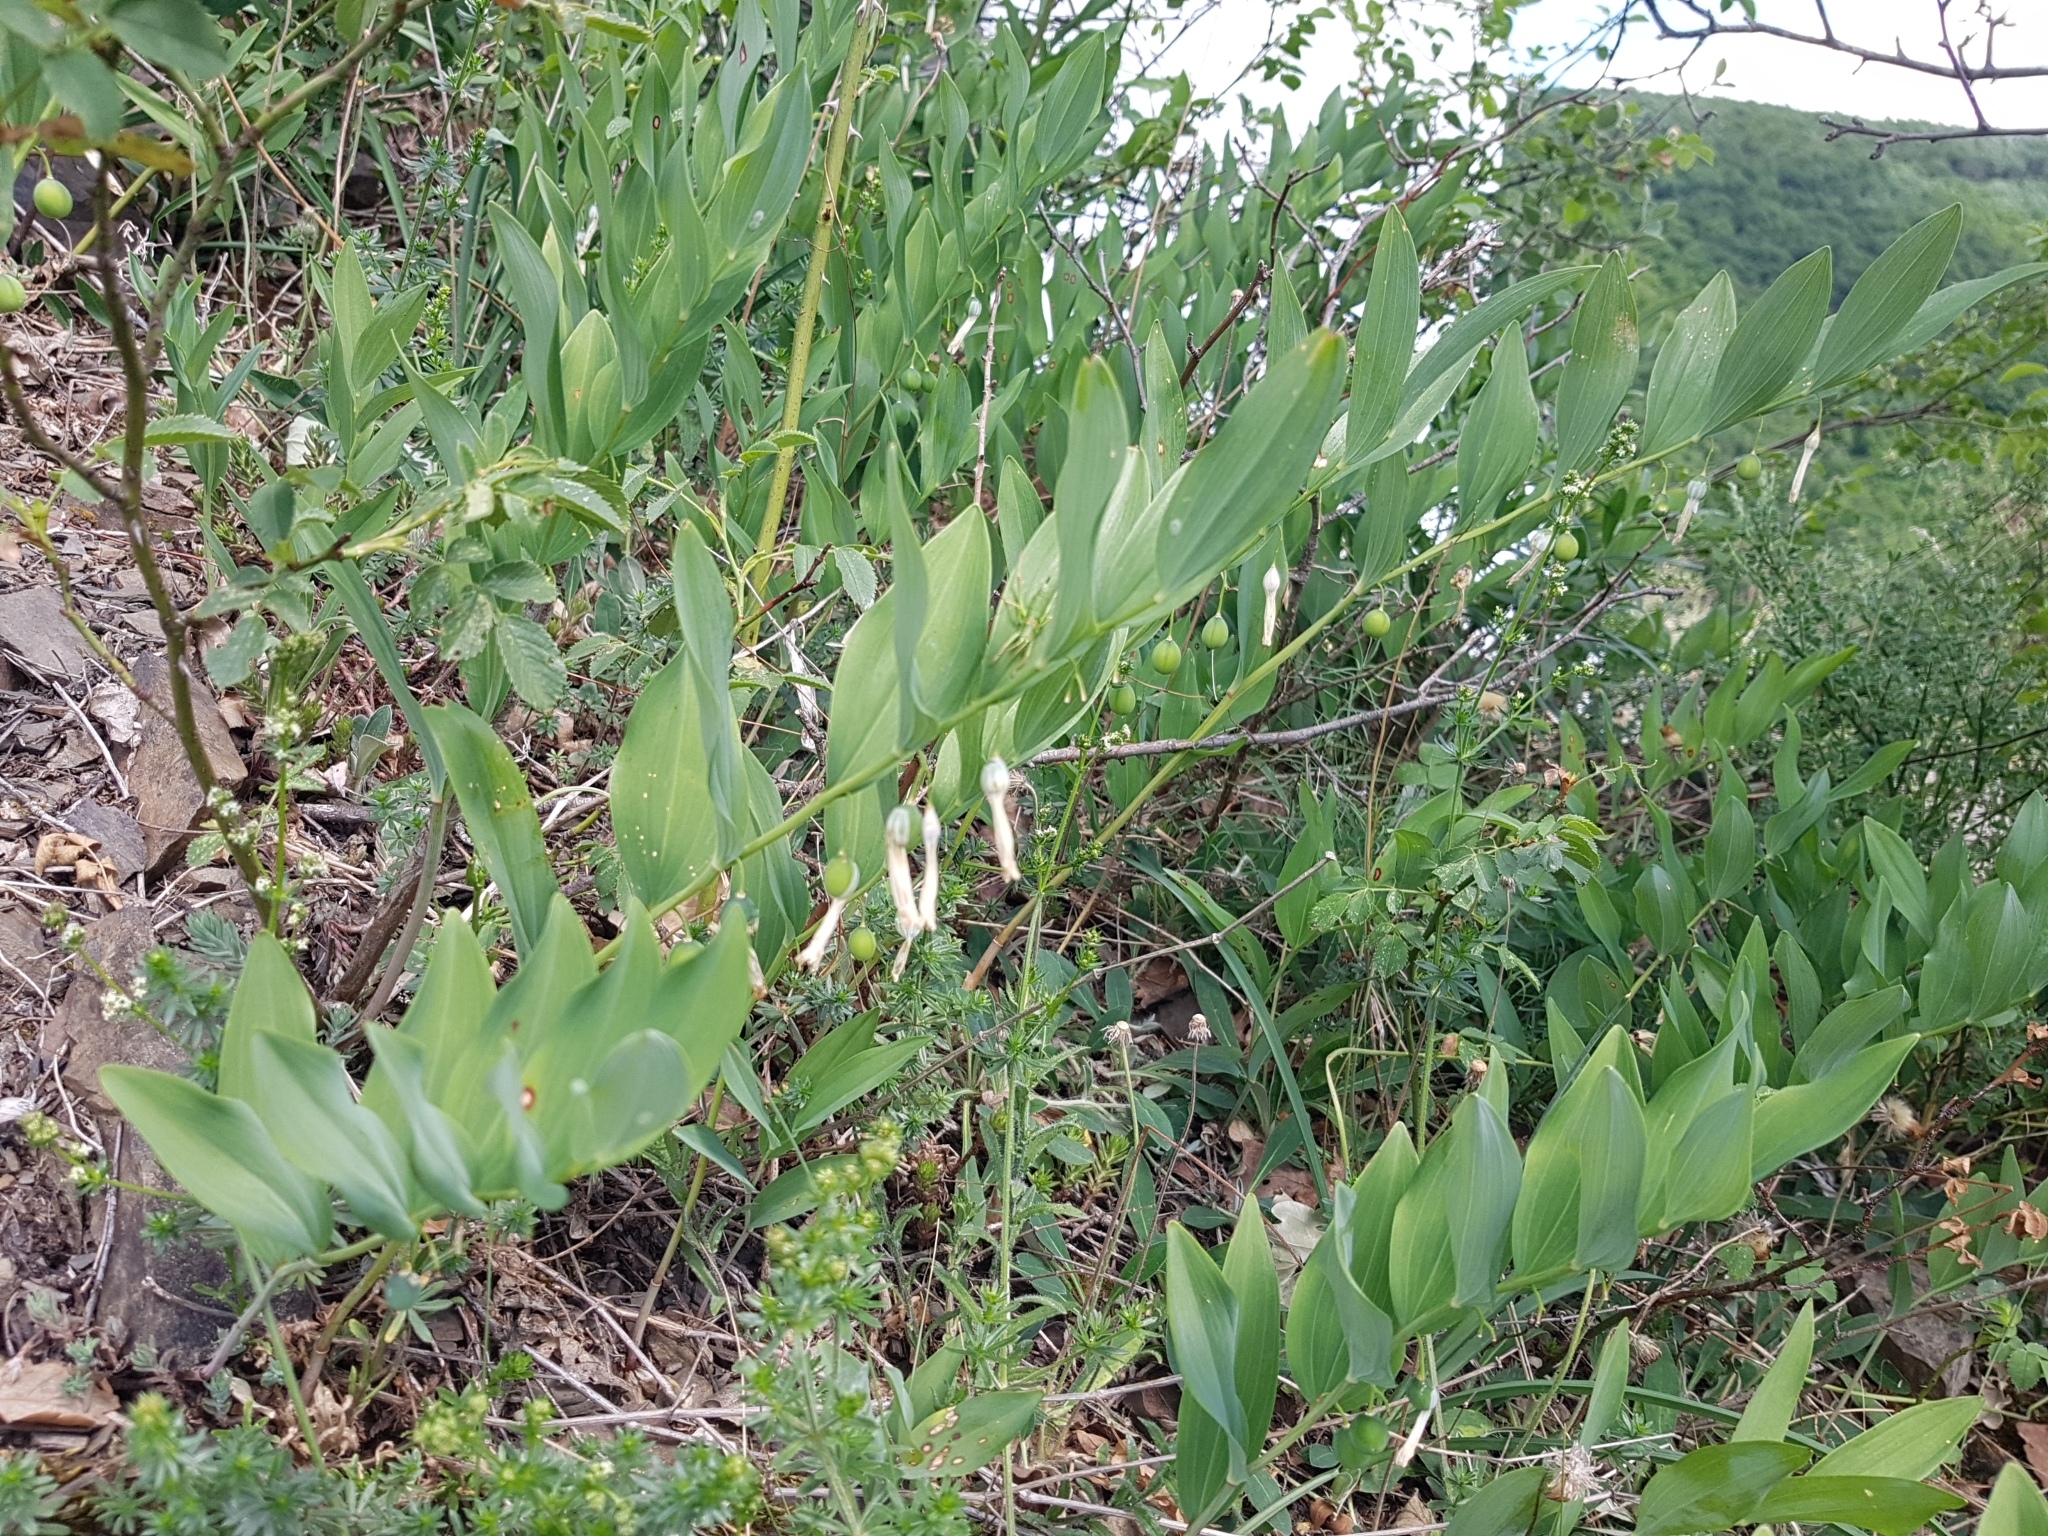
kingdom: Plantae
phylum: Tracheophyta
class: Liliopsida
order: Asparagales
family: Asparagaceae
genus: Polygonatum
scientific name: Polygonatum odoratum
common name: Angular solomon's-seal
